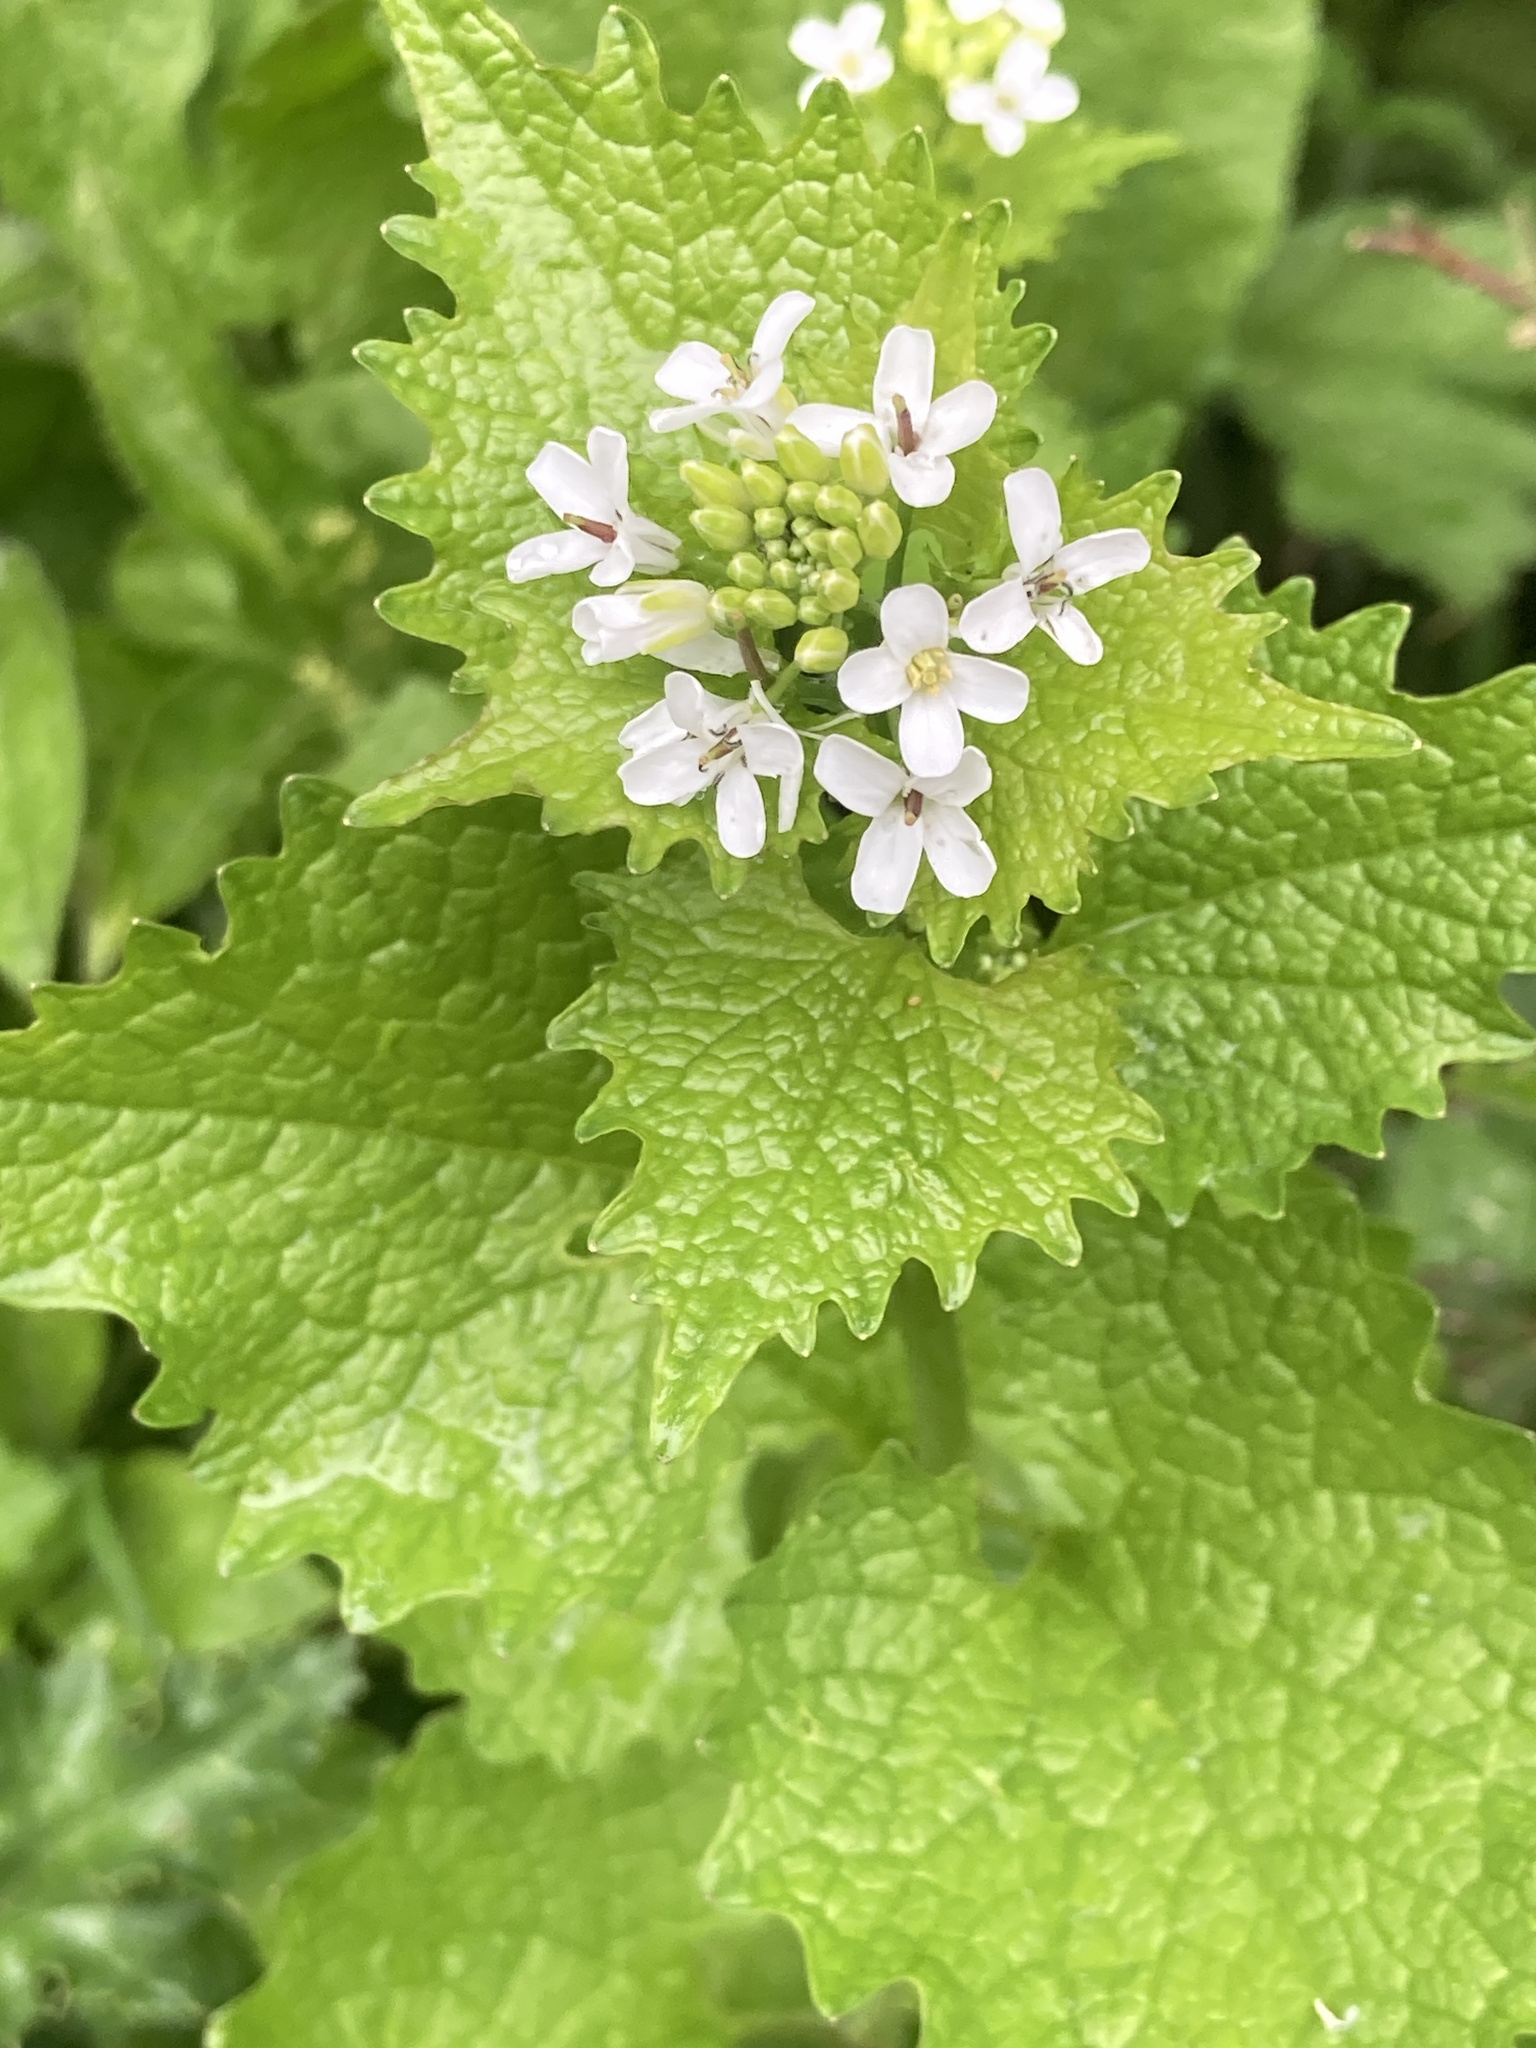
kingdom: Plantae
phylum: Tracheophyta
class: Magnoliopsida
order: Brassicales
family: Brassicaceae
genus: Alliaria
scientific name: Alliaria petiolata
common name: Garlic mustard
